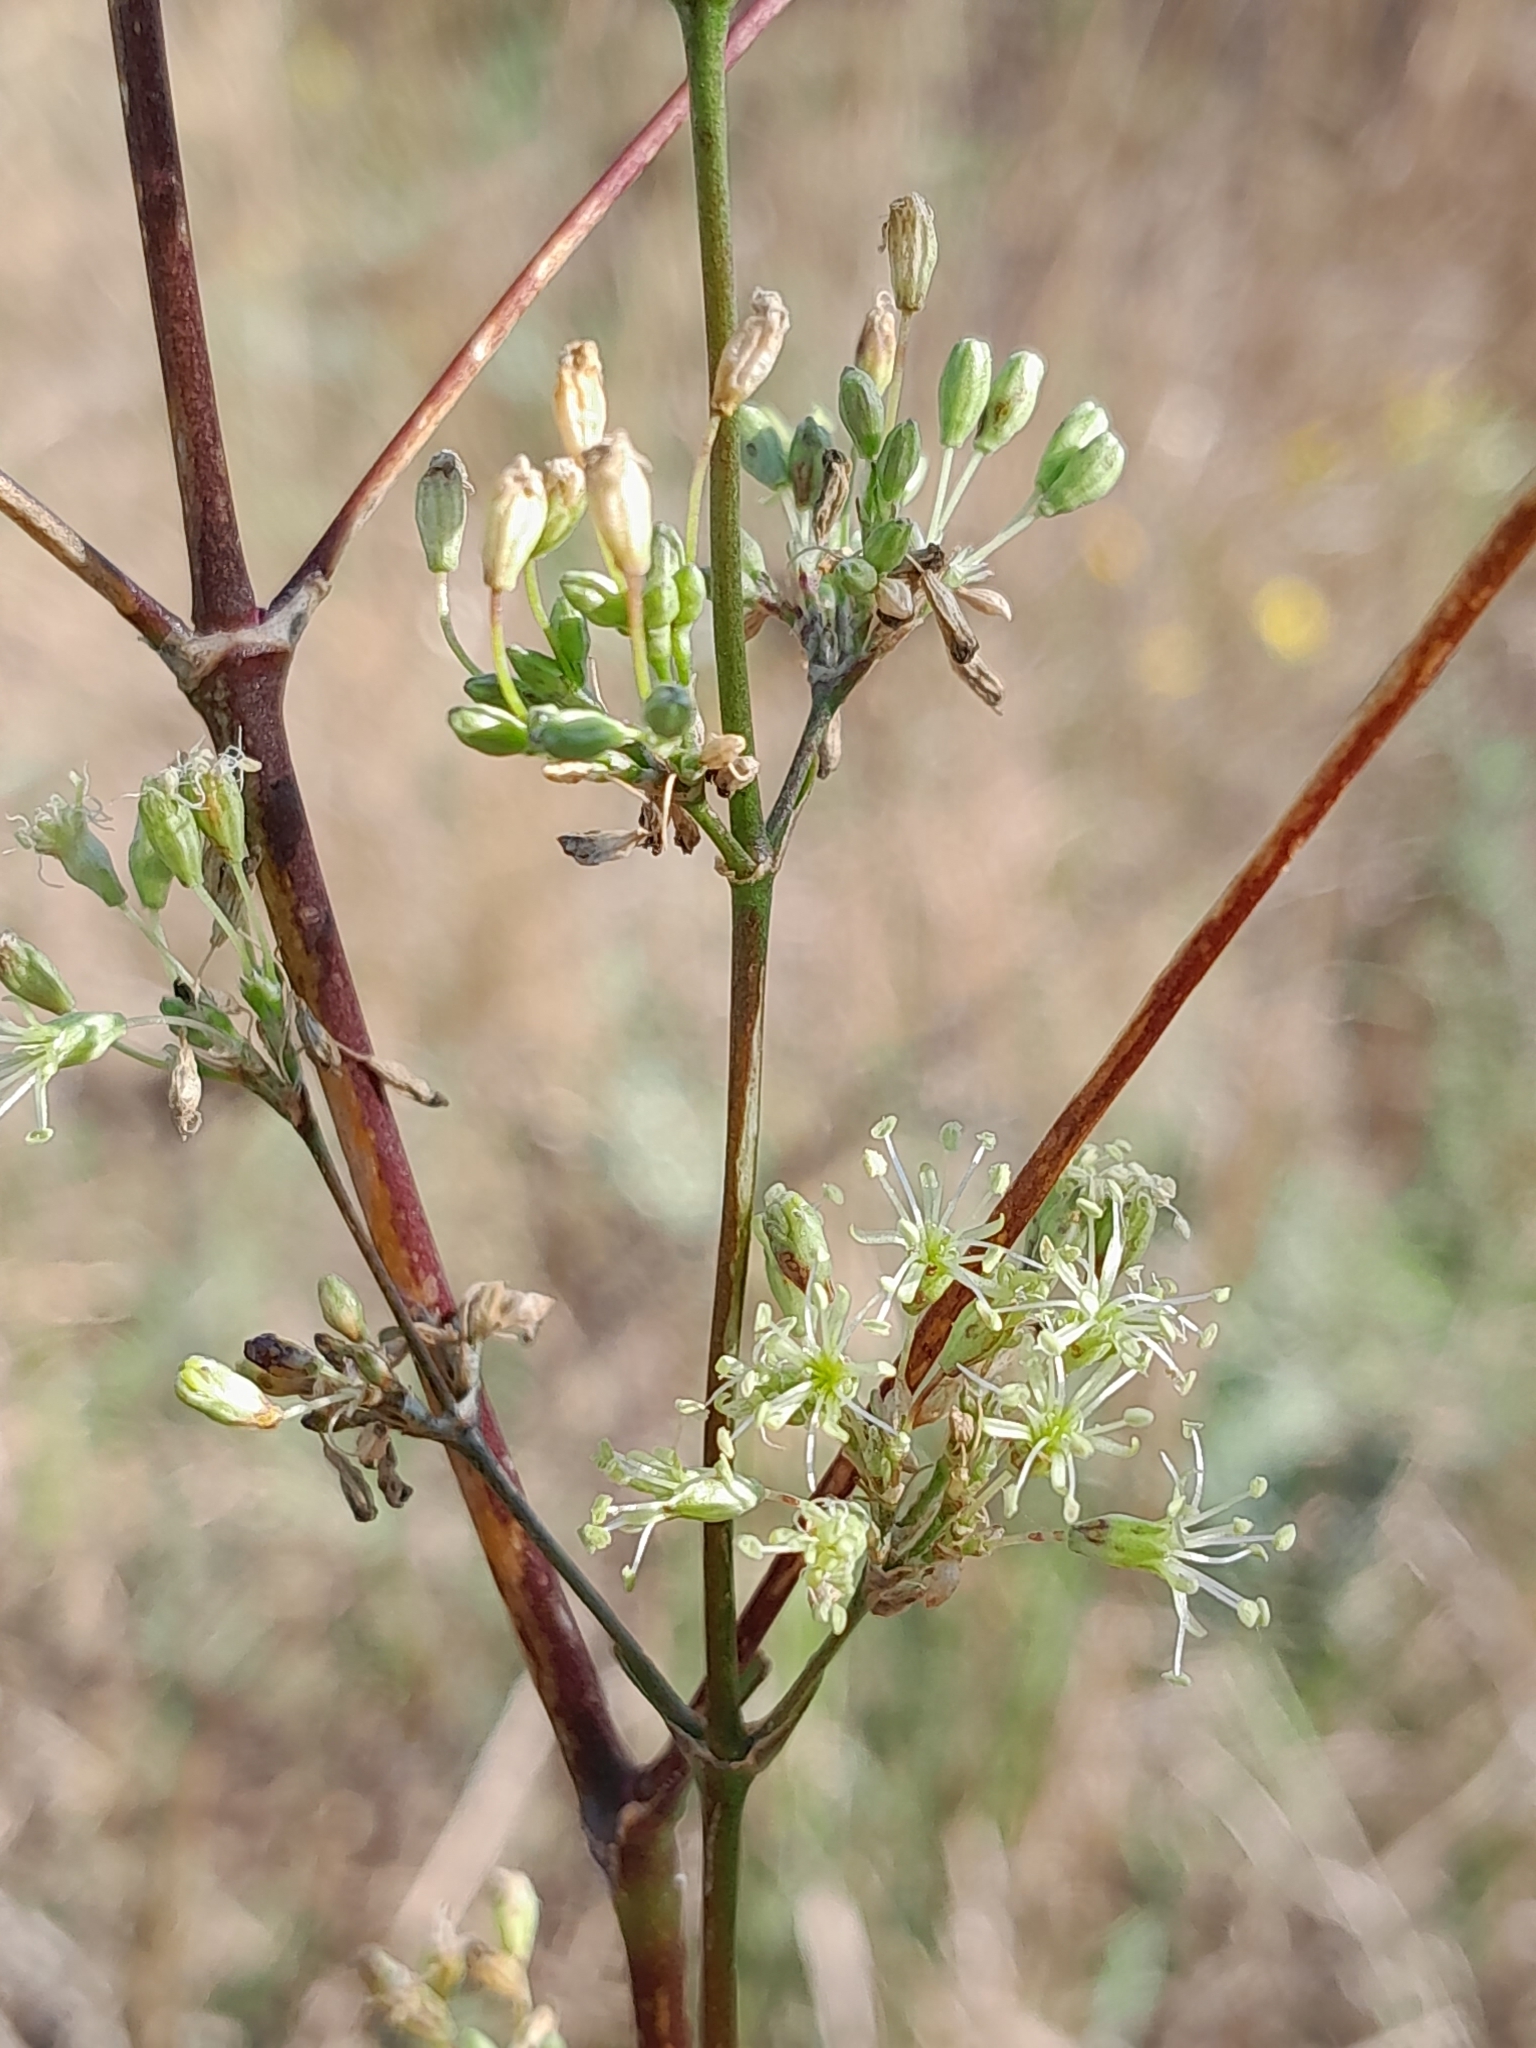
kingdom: Plantae
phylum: Tracheophyta
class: Magnoliopsida
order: Caryophyllales
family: Caryophyllaceae
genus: Silene
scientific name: Silene otites
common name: Spanish catchfly
